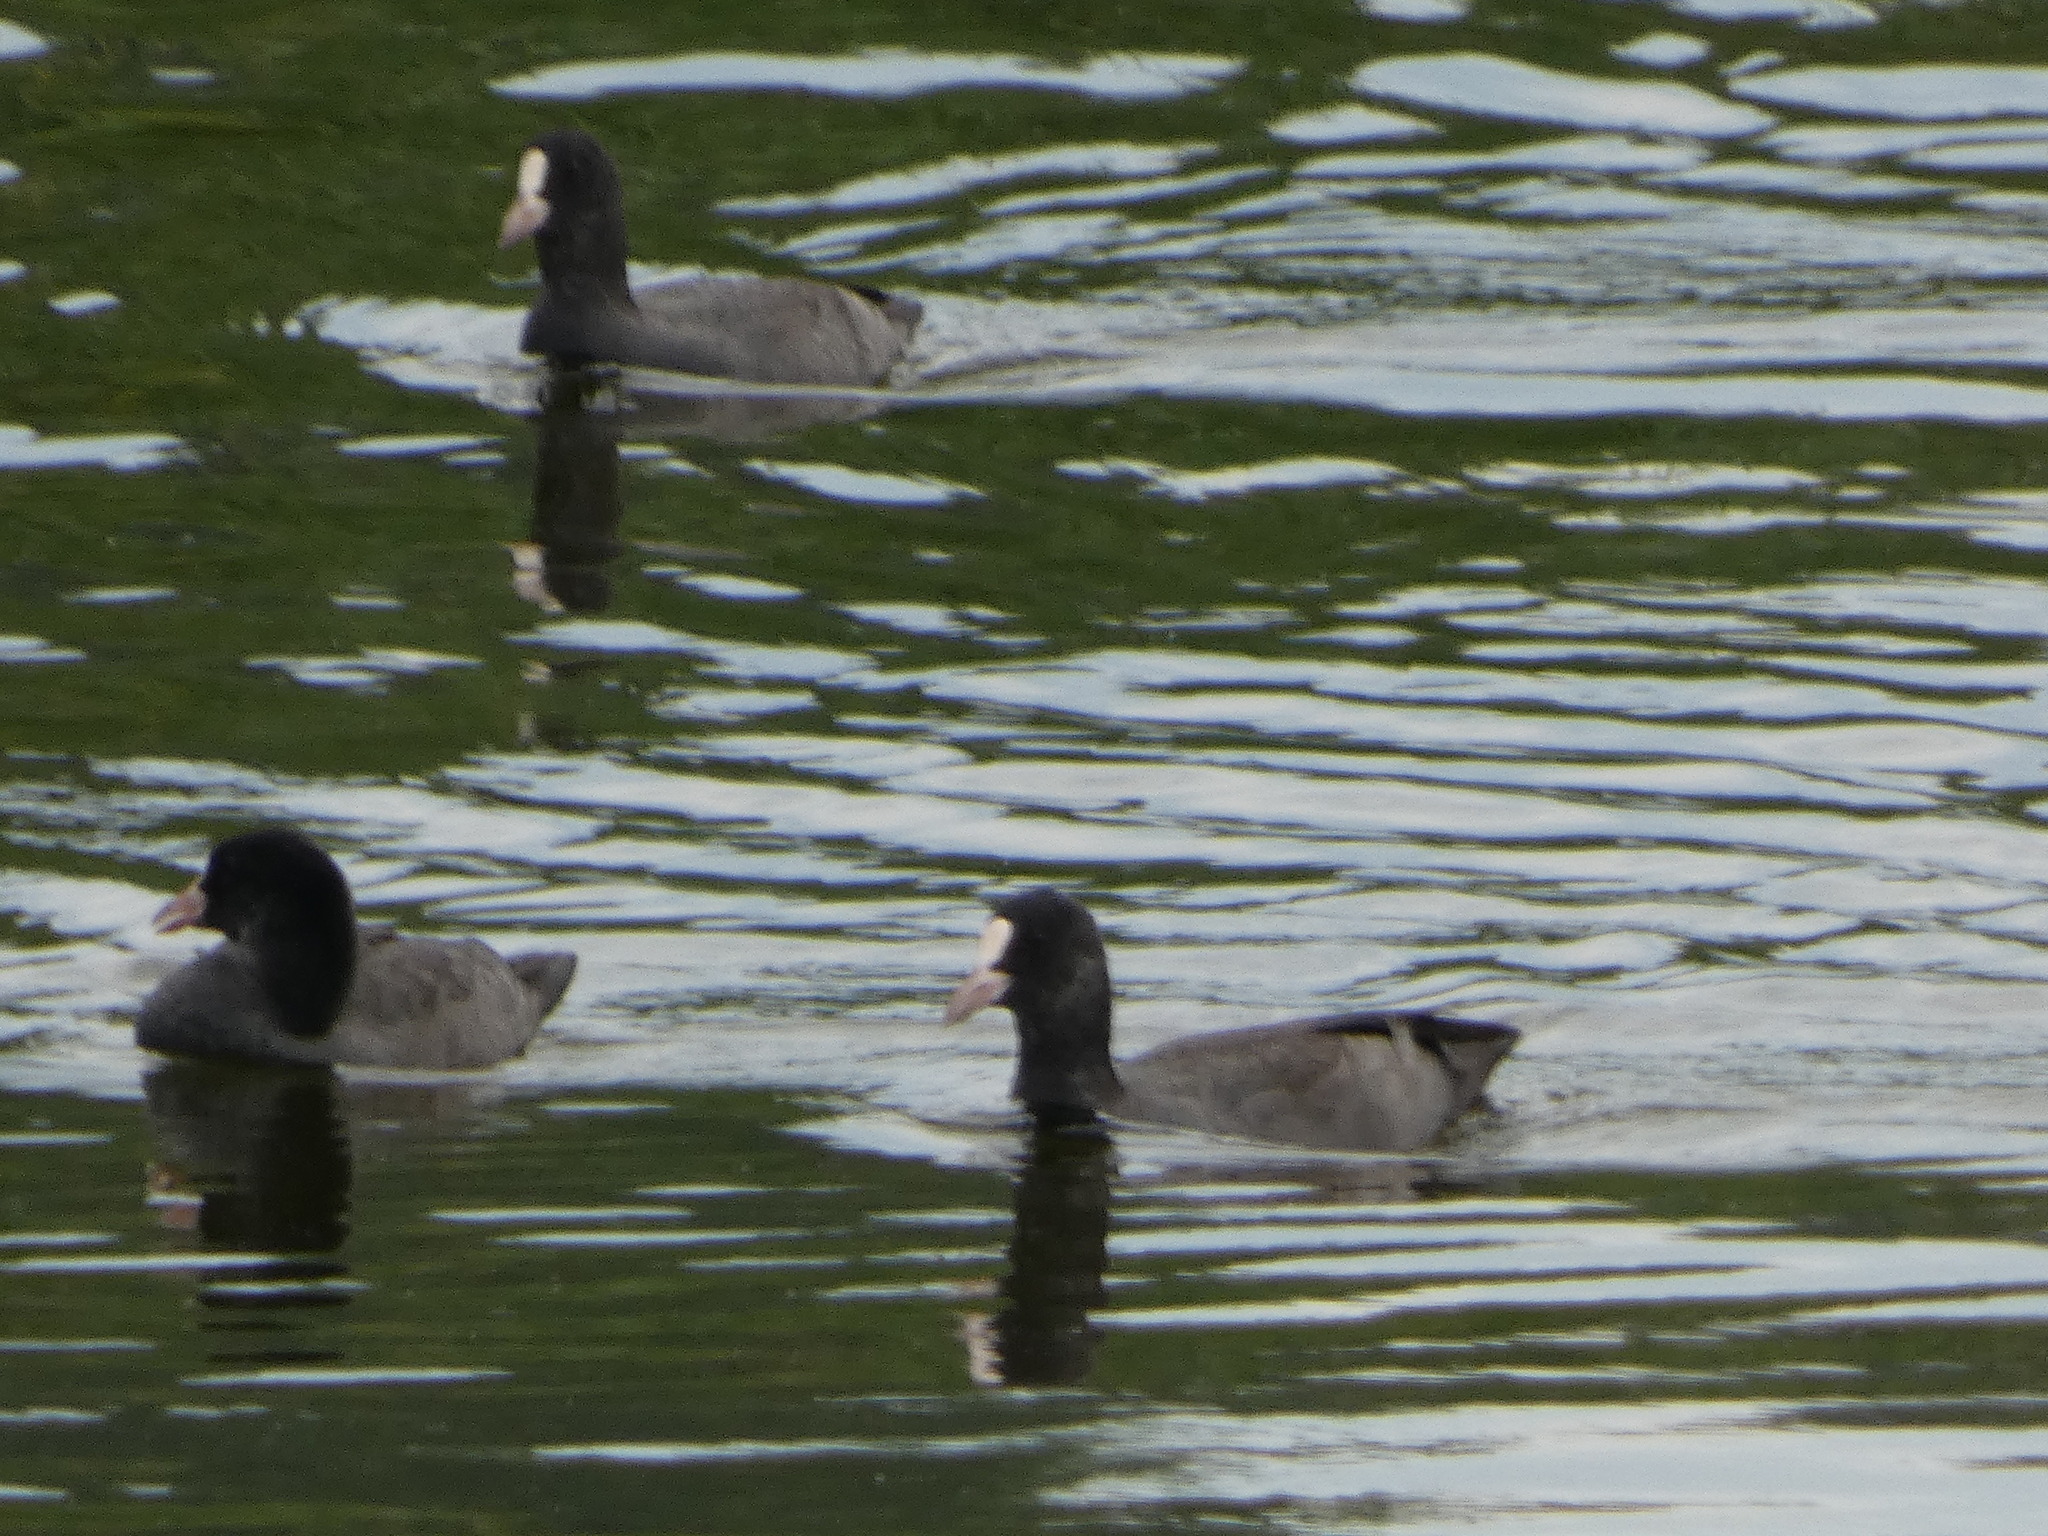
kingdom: Animalia
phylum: Chordata
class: Aves
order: Gruiformes
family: Rallidae
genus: Fulica
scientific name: Fulica atra
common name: Eurasian coot
